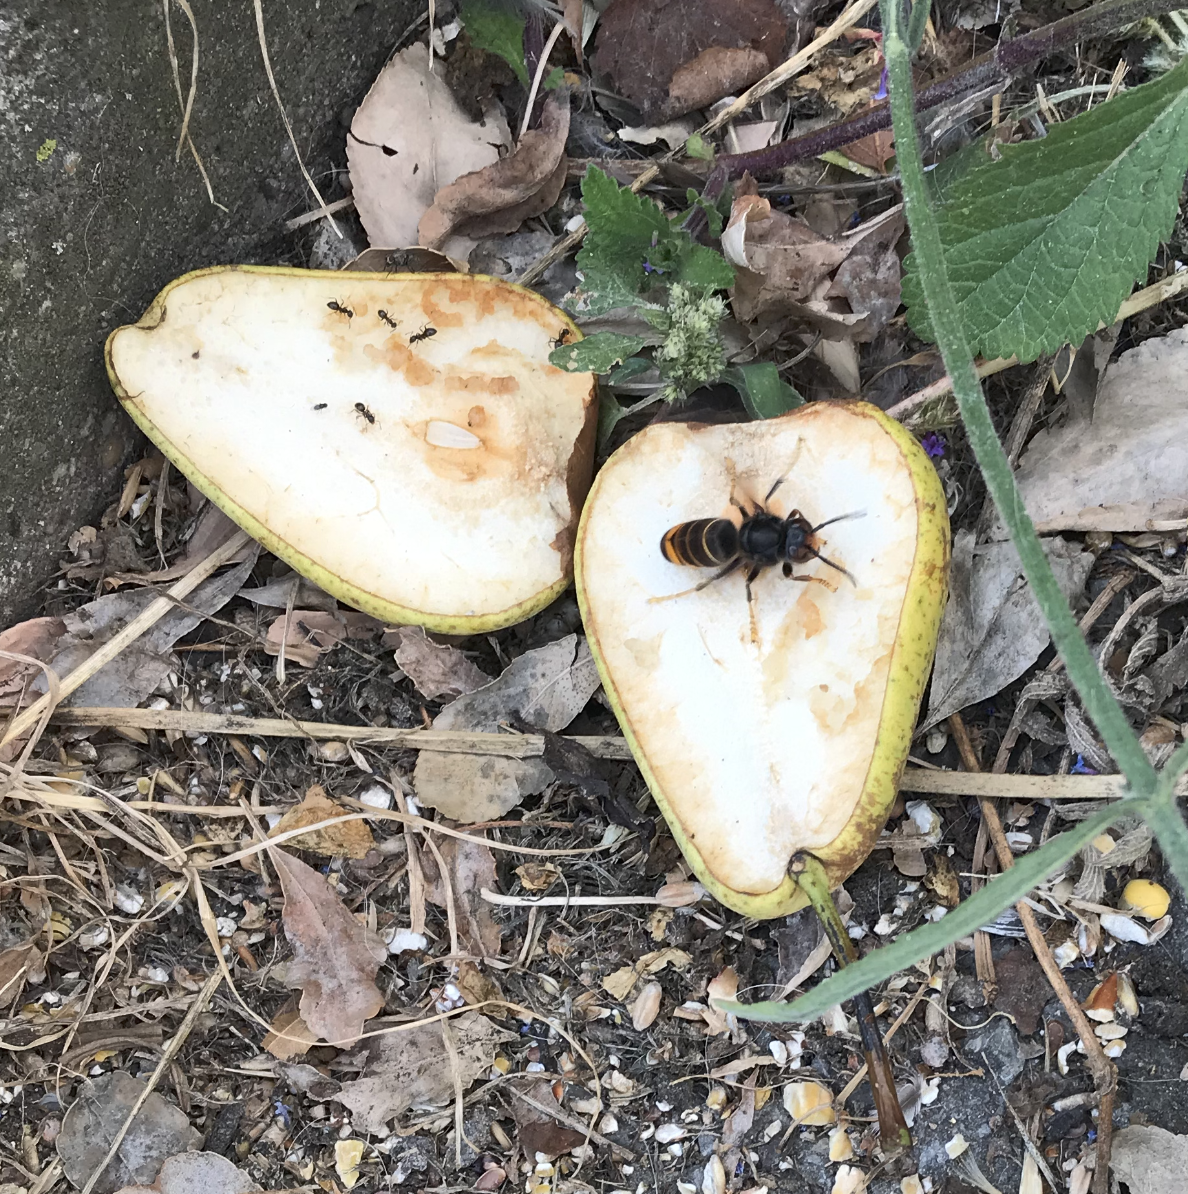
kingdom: Animalia
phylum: Arthropoda
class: Insecta
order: Hymenoptera
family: Vespidae
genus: Vespa
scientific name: Vespa velutina
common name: Asian hornet
